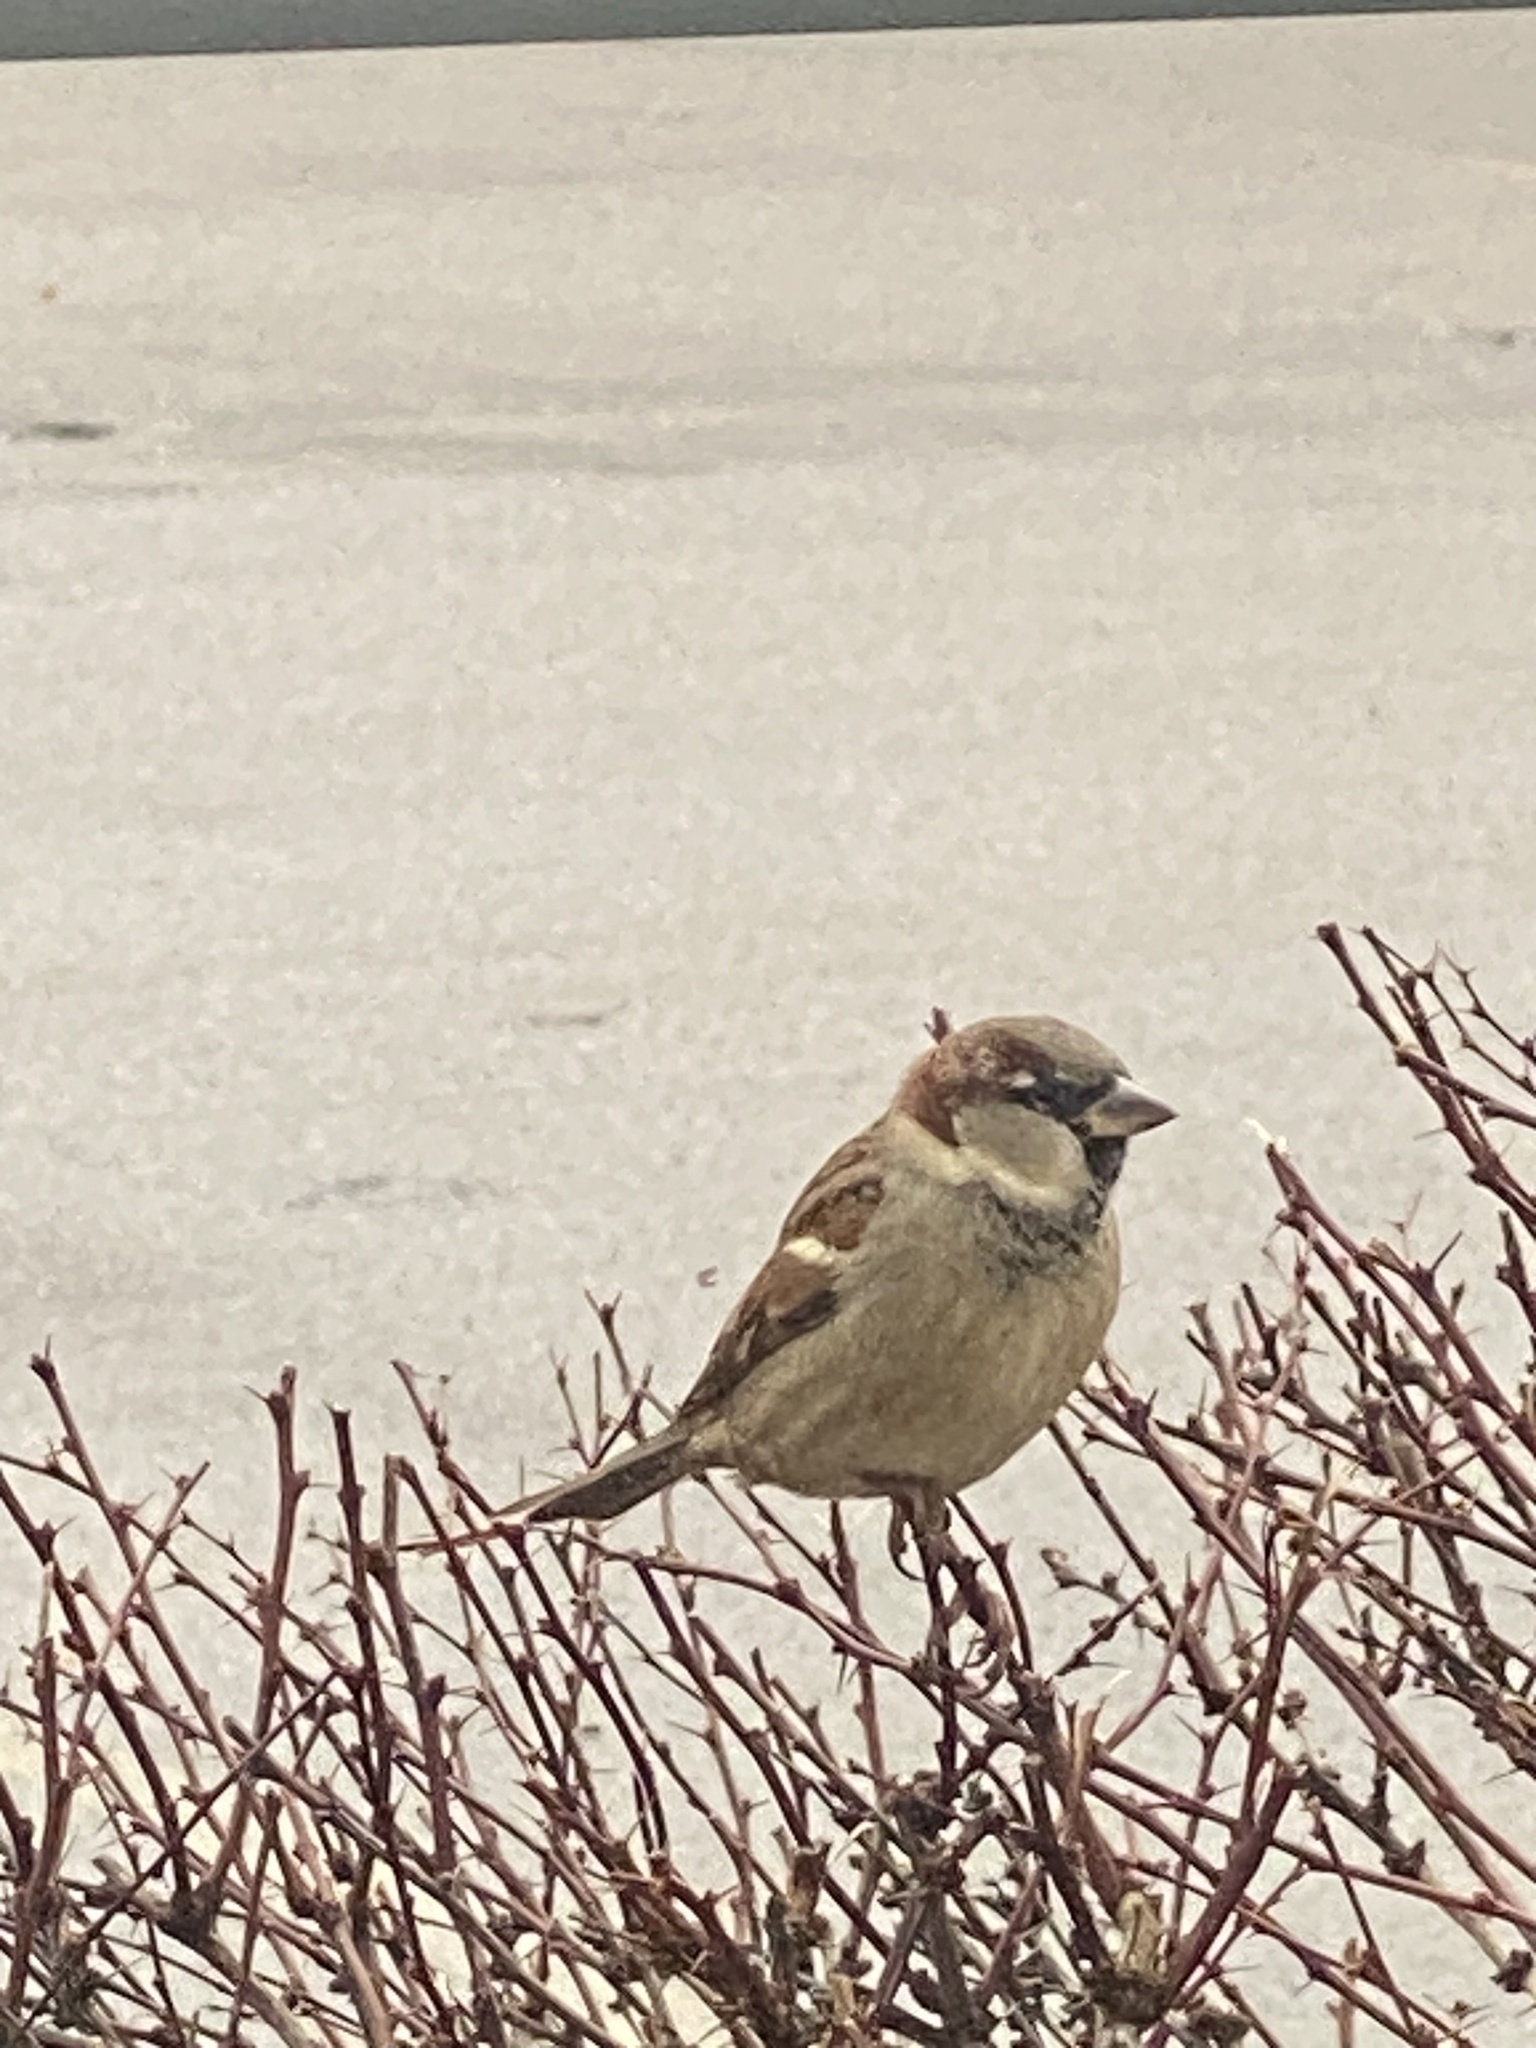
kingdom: Animalia
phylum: Chordata
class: Aves
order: Passeriformes
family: Passeridae
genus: Passer
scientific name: Passer domesticus
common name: House sparrow
